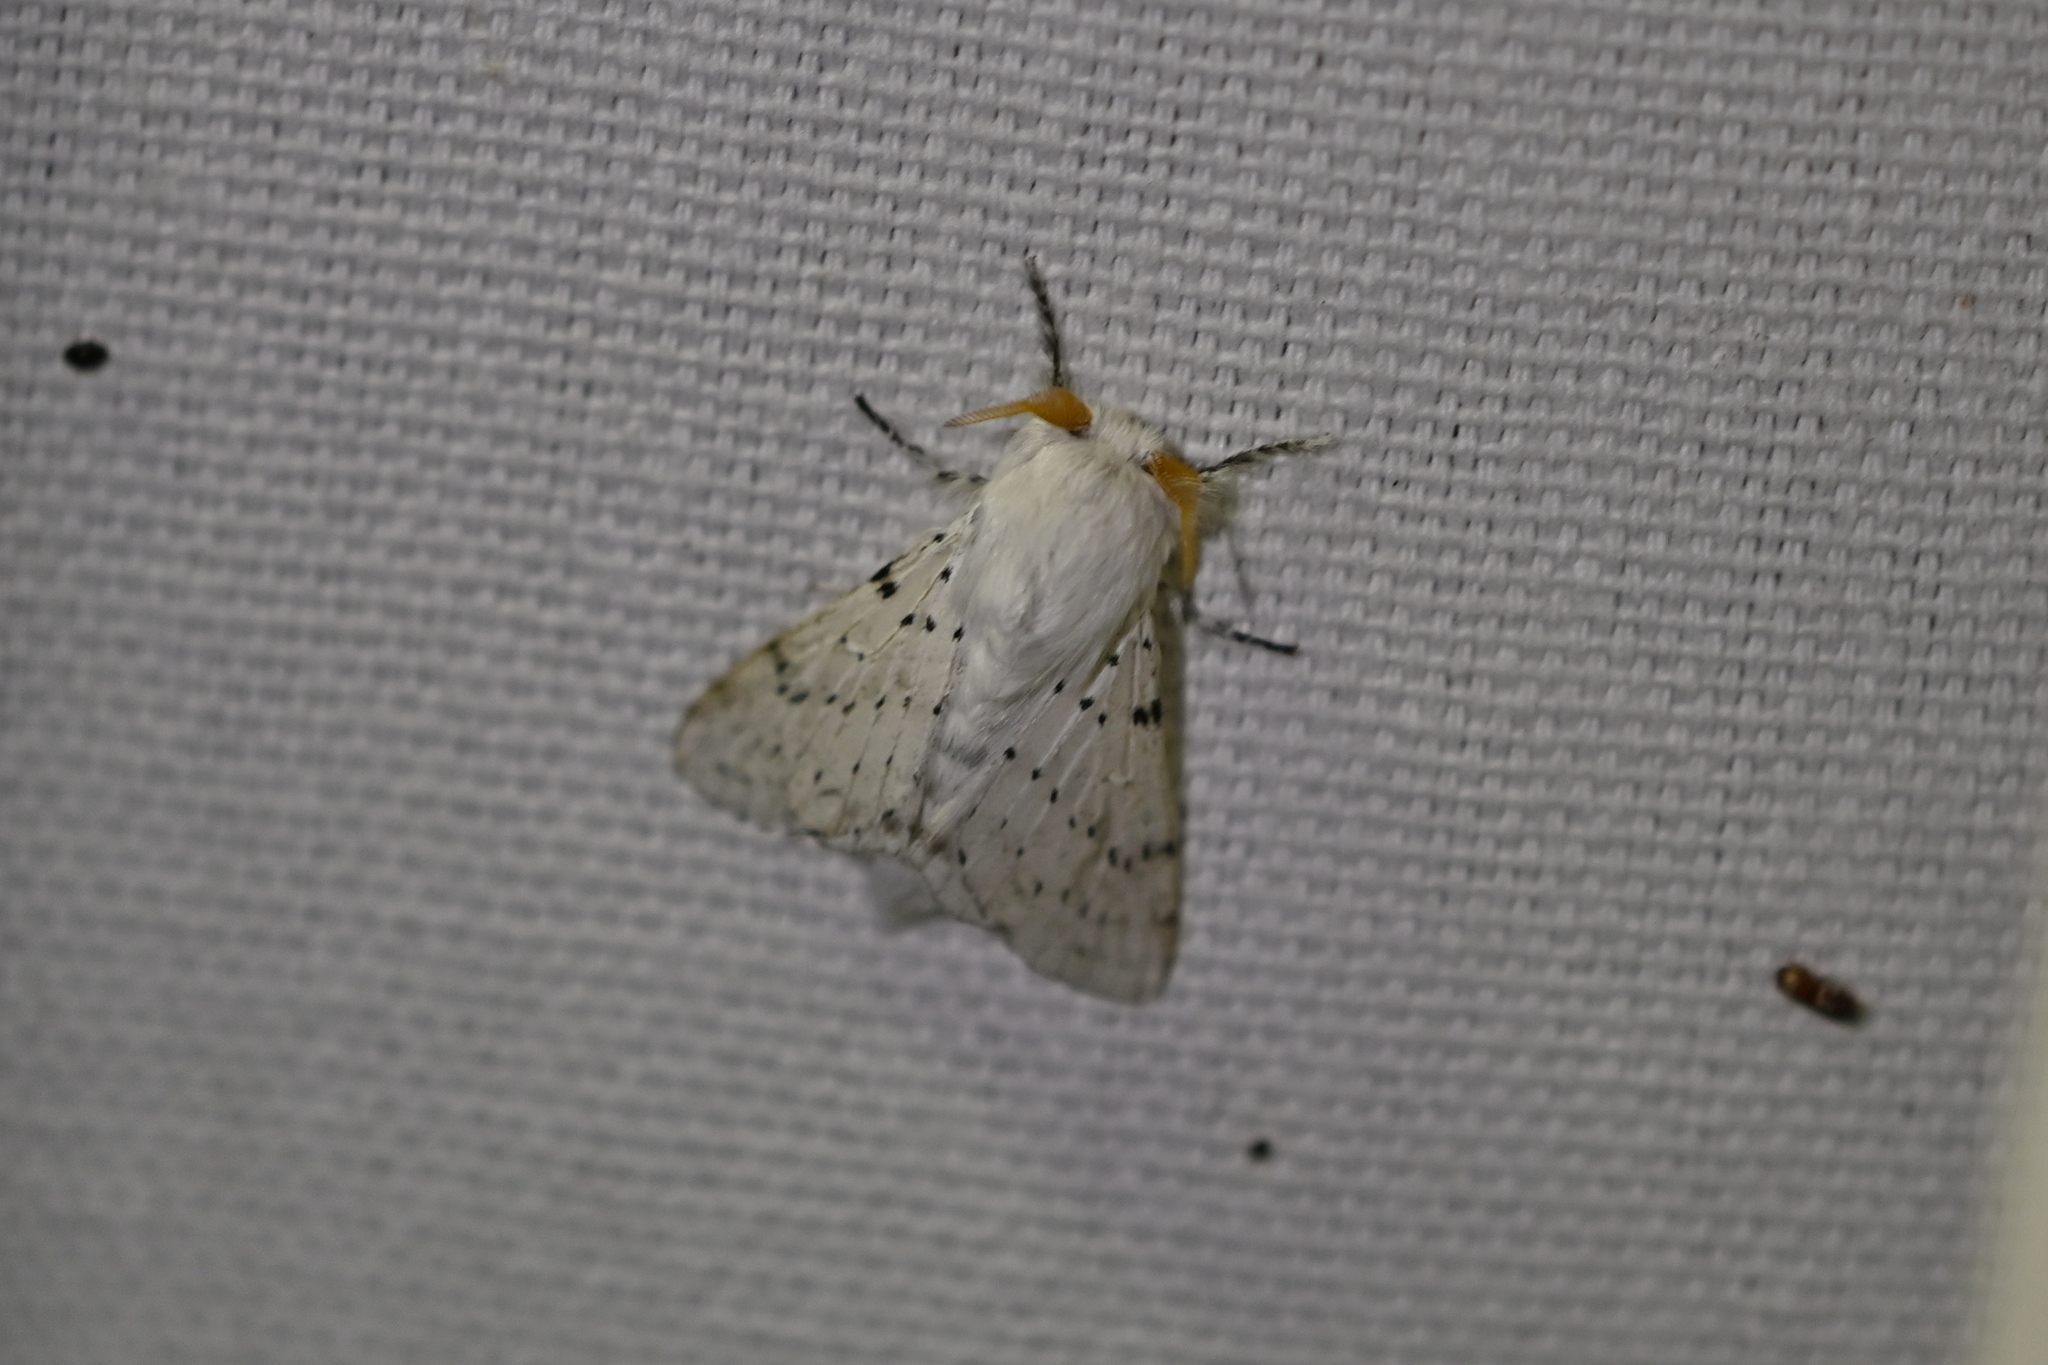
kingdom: Animalia
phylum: Arthropoda
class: Insecta
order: Lepidoptera
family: Lasiocampidae
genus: Artace
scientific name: Artace cribrarius
